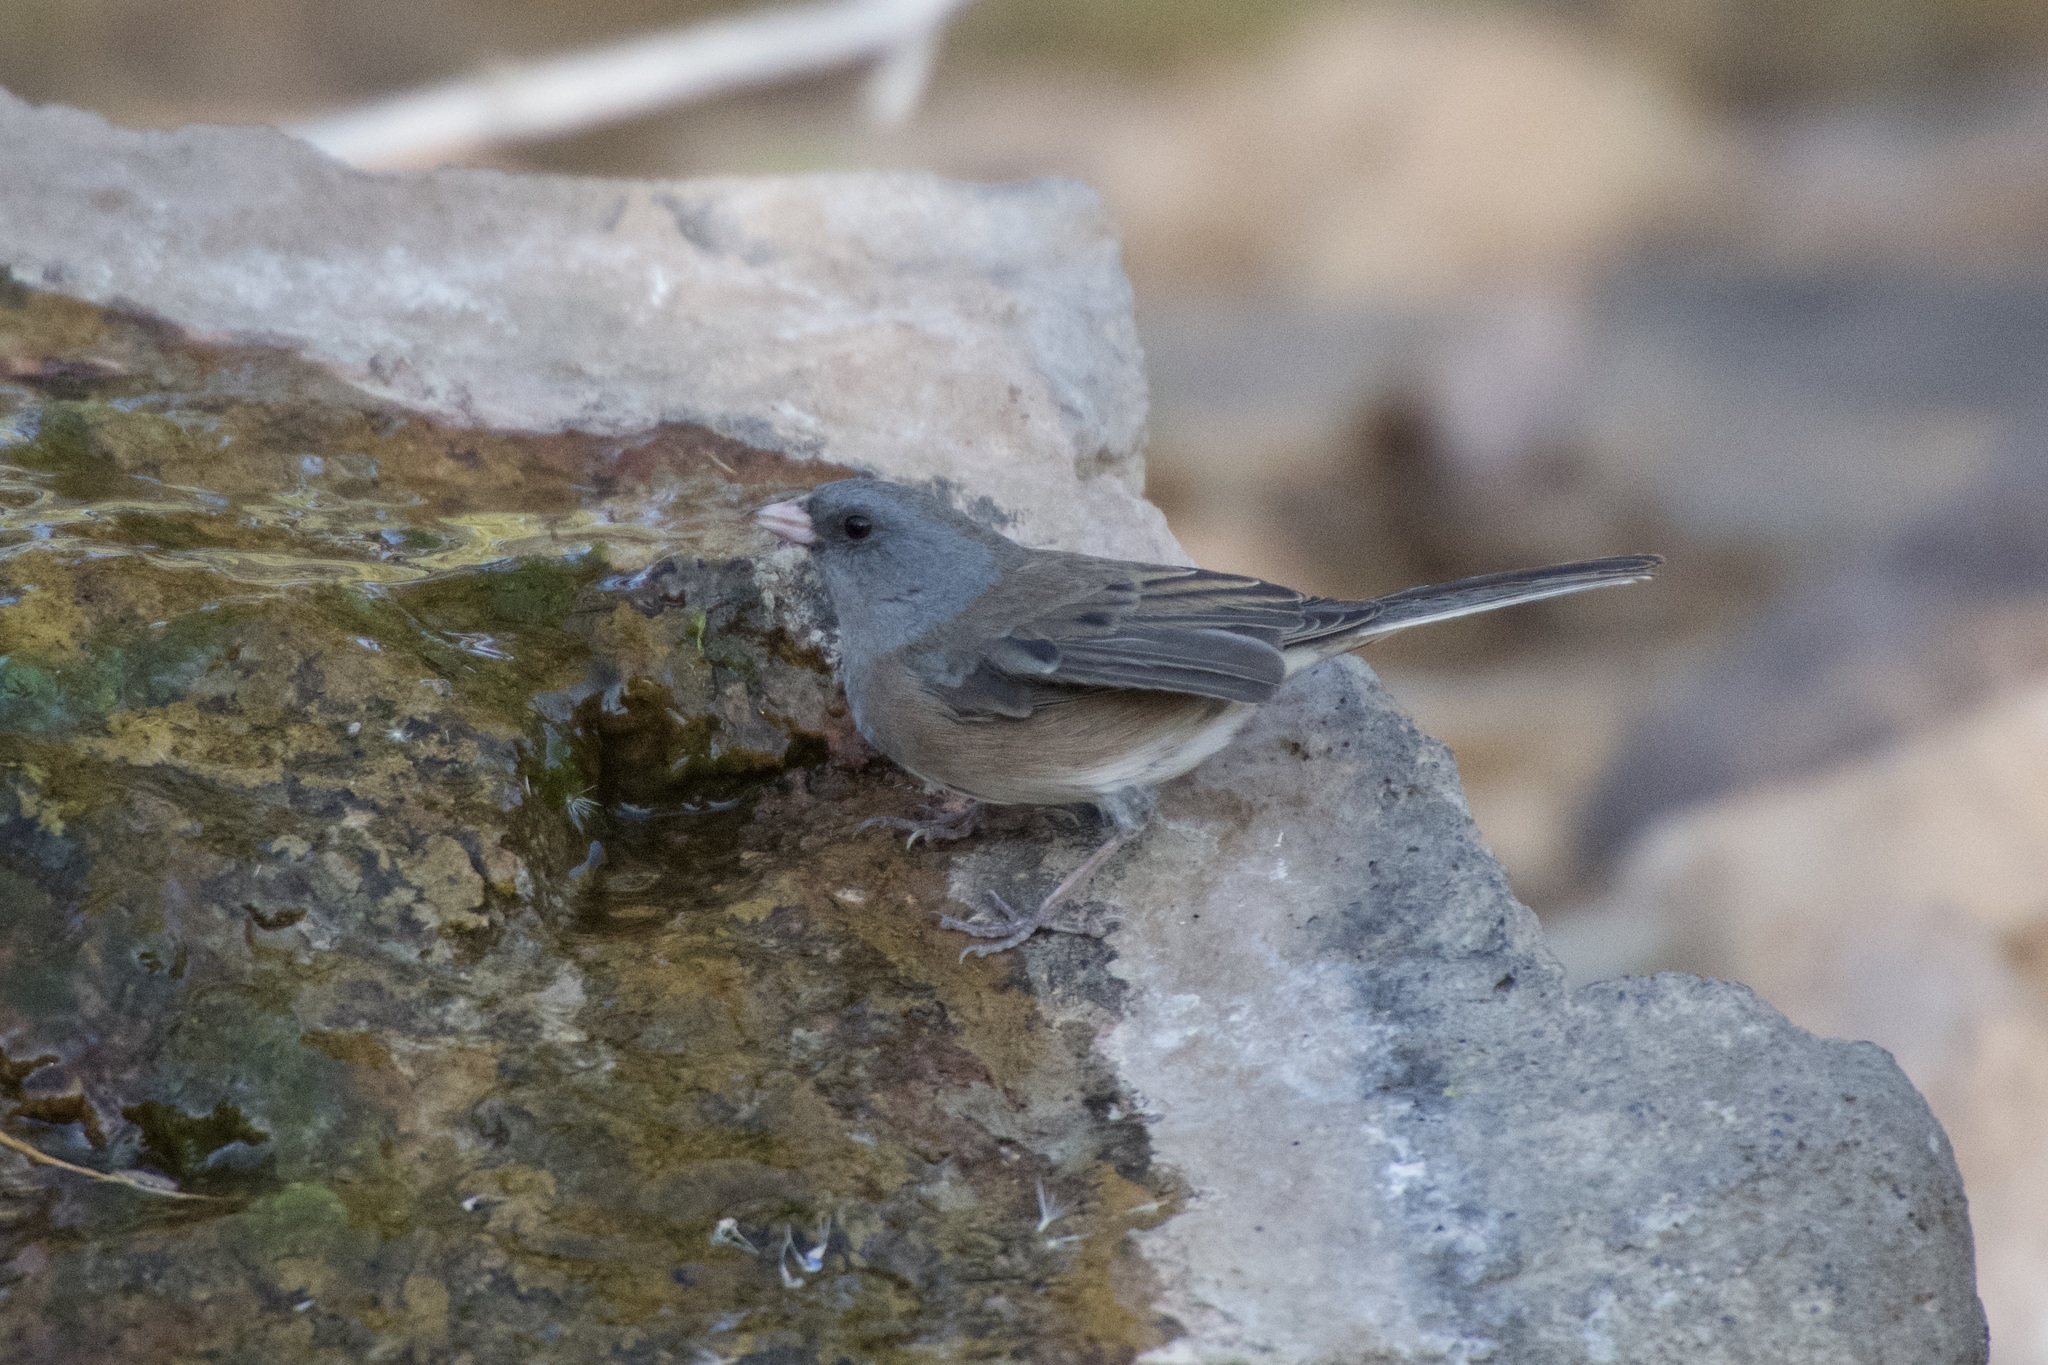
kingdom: Animalia
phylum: Chordata
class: Aves
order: Passeriformes
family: Passerellidae
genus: Junco
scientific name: Junco hyemalis
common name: Dark-eyed junco
